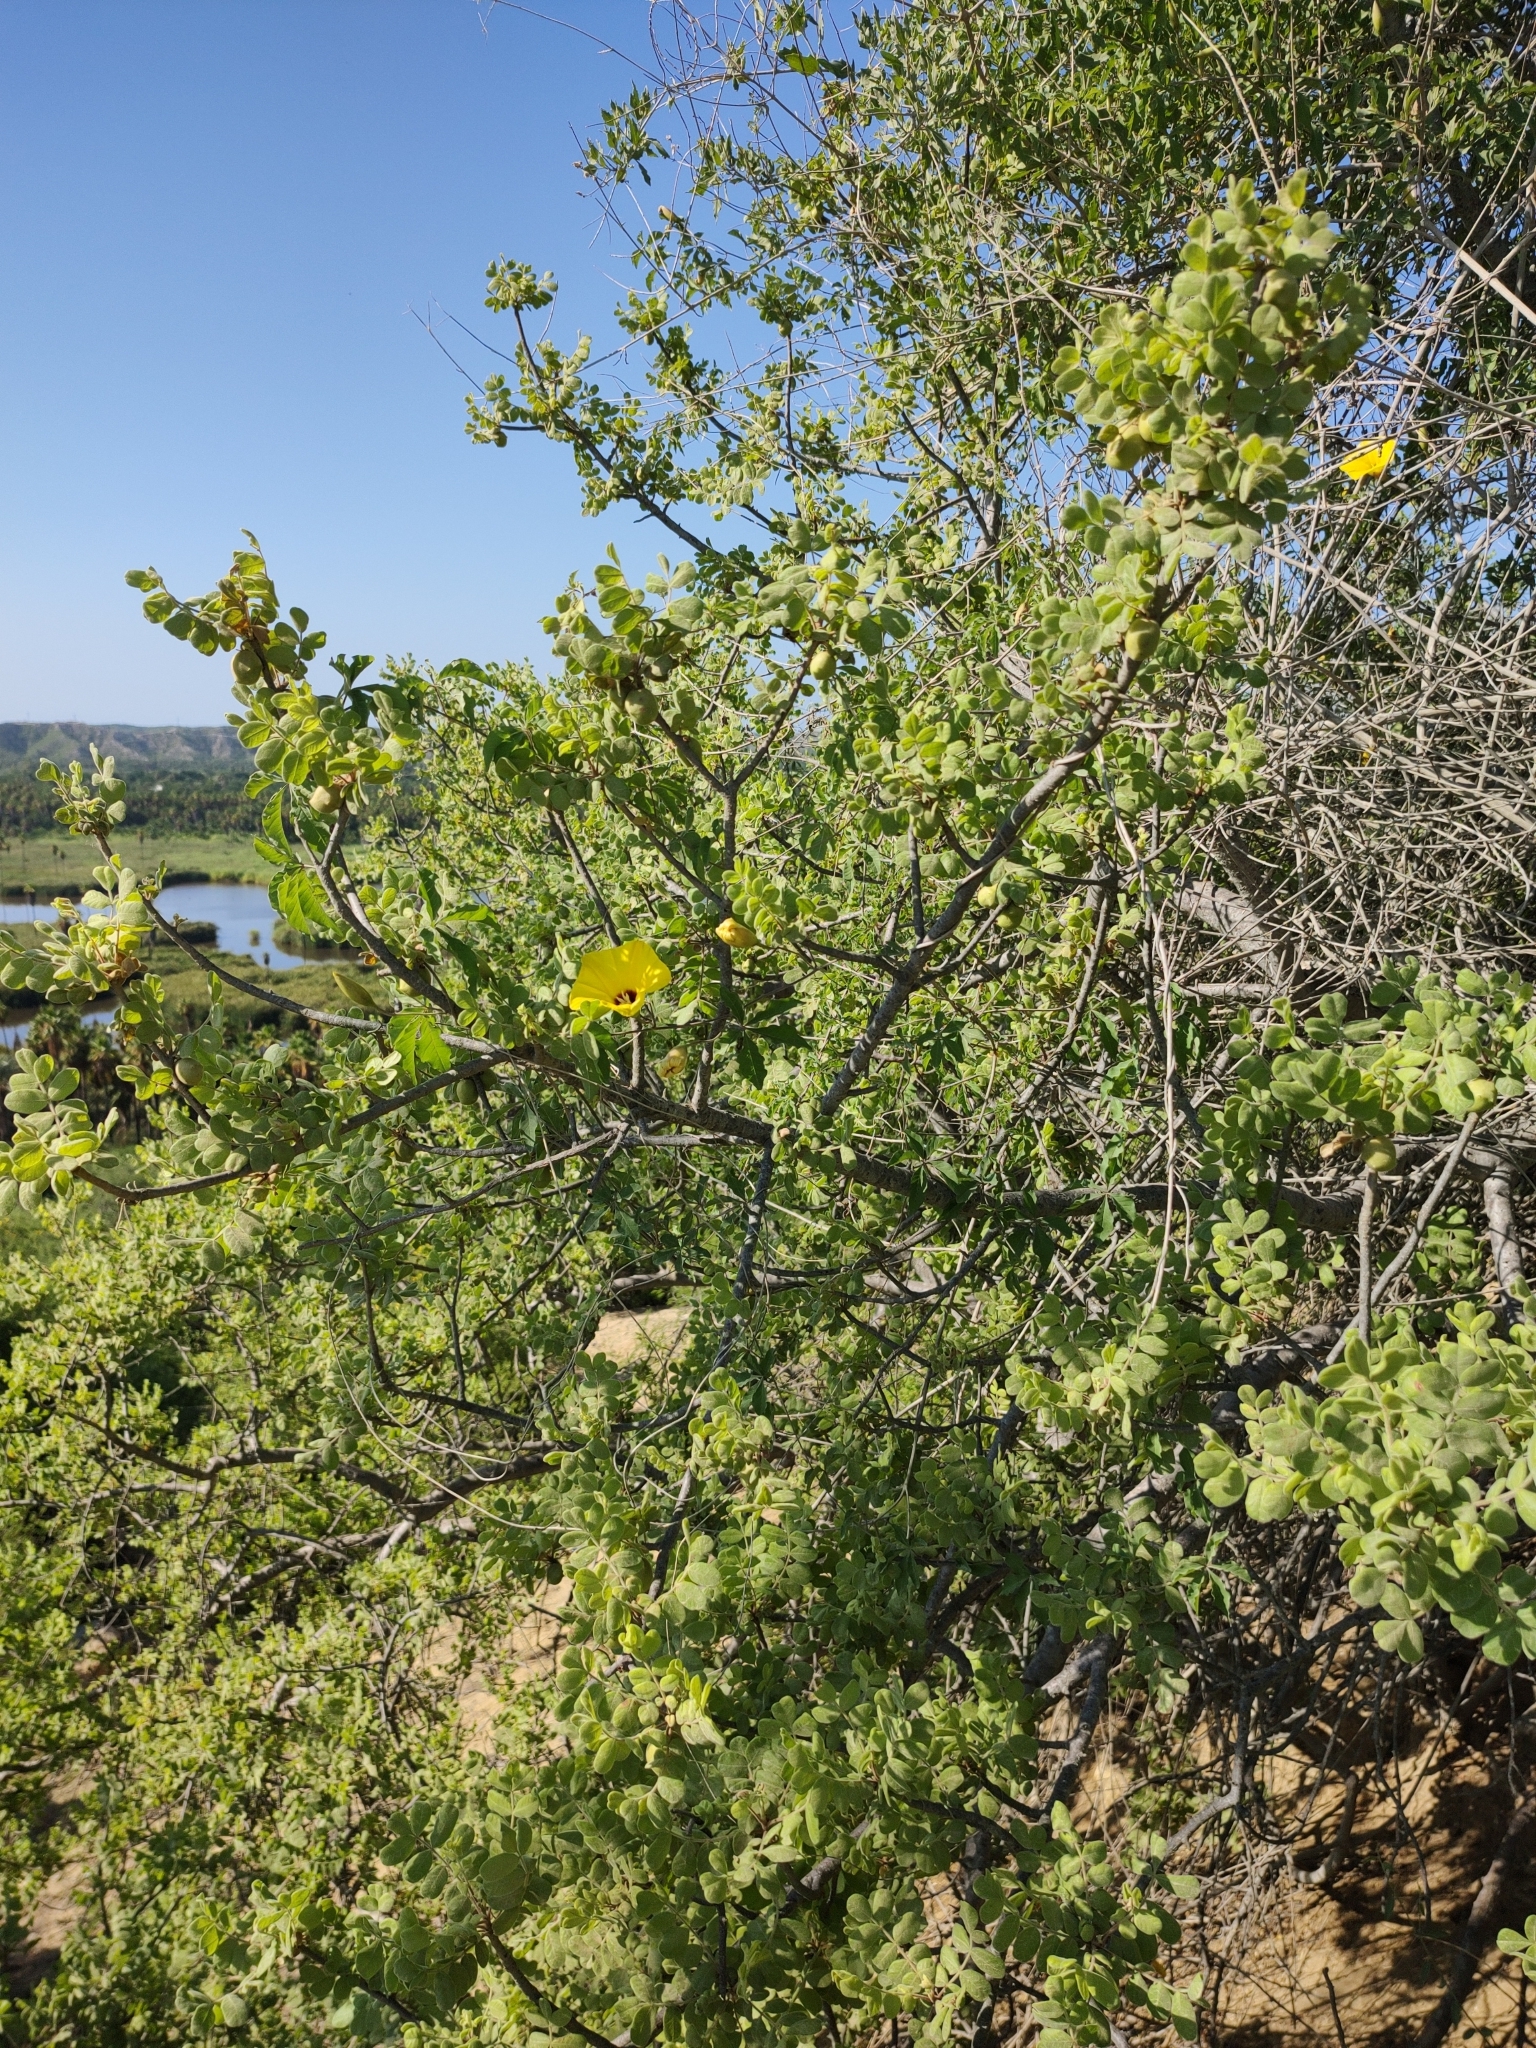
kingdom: Plantae
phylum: Tracheophyta
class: Magnoliopsida
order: Solanales
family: Convolvulaceae
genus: Distimake
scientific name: Distimake aureus
